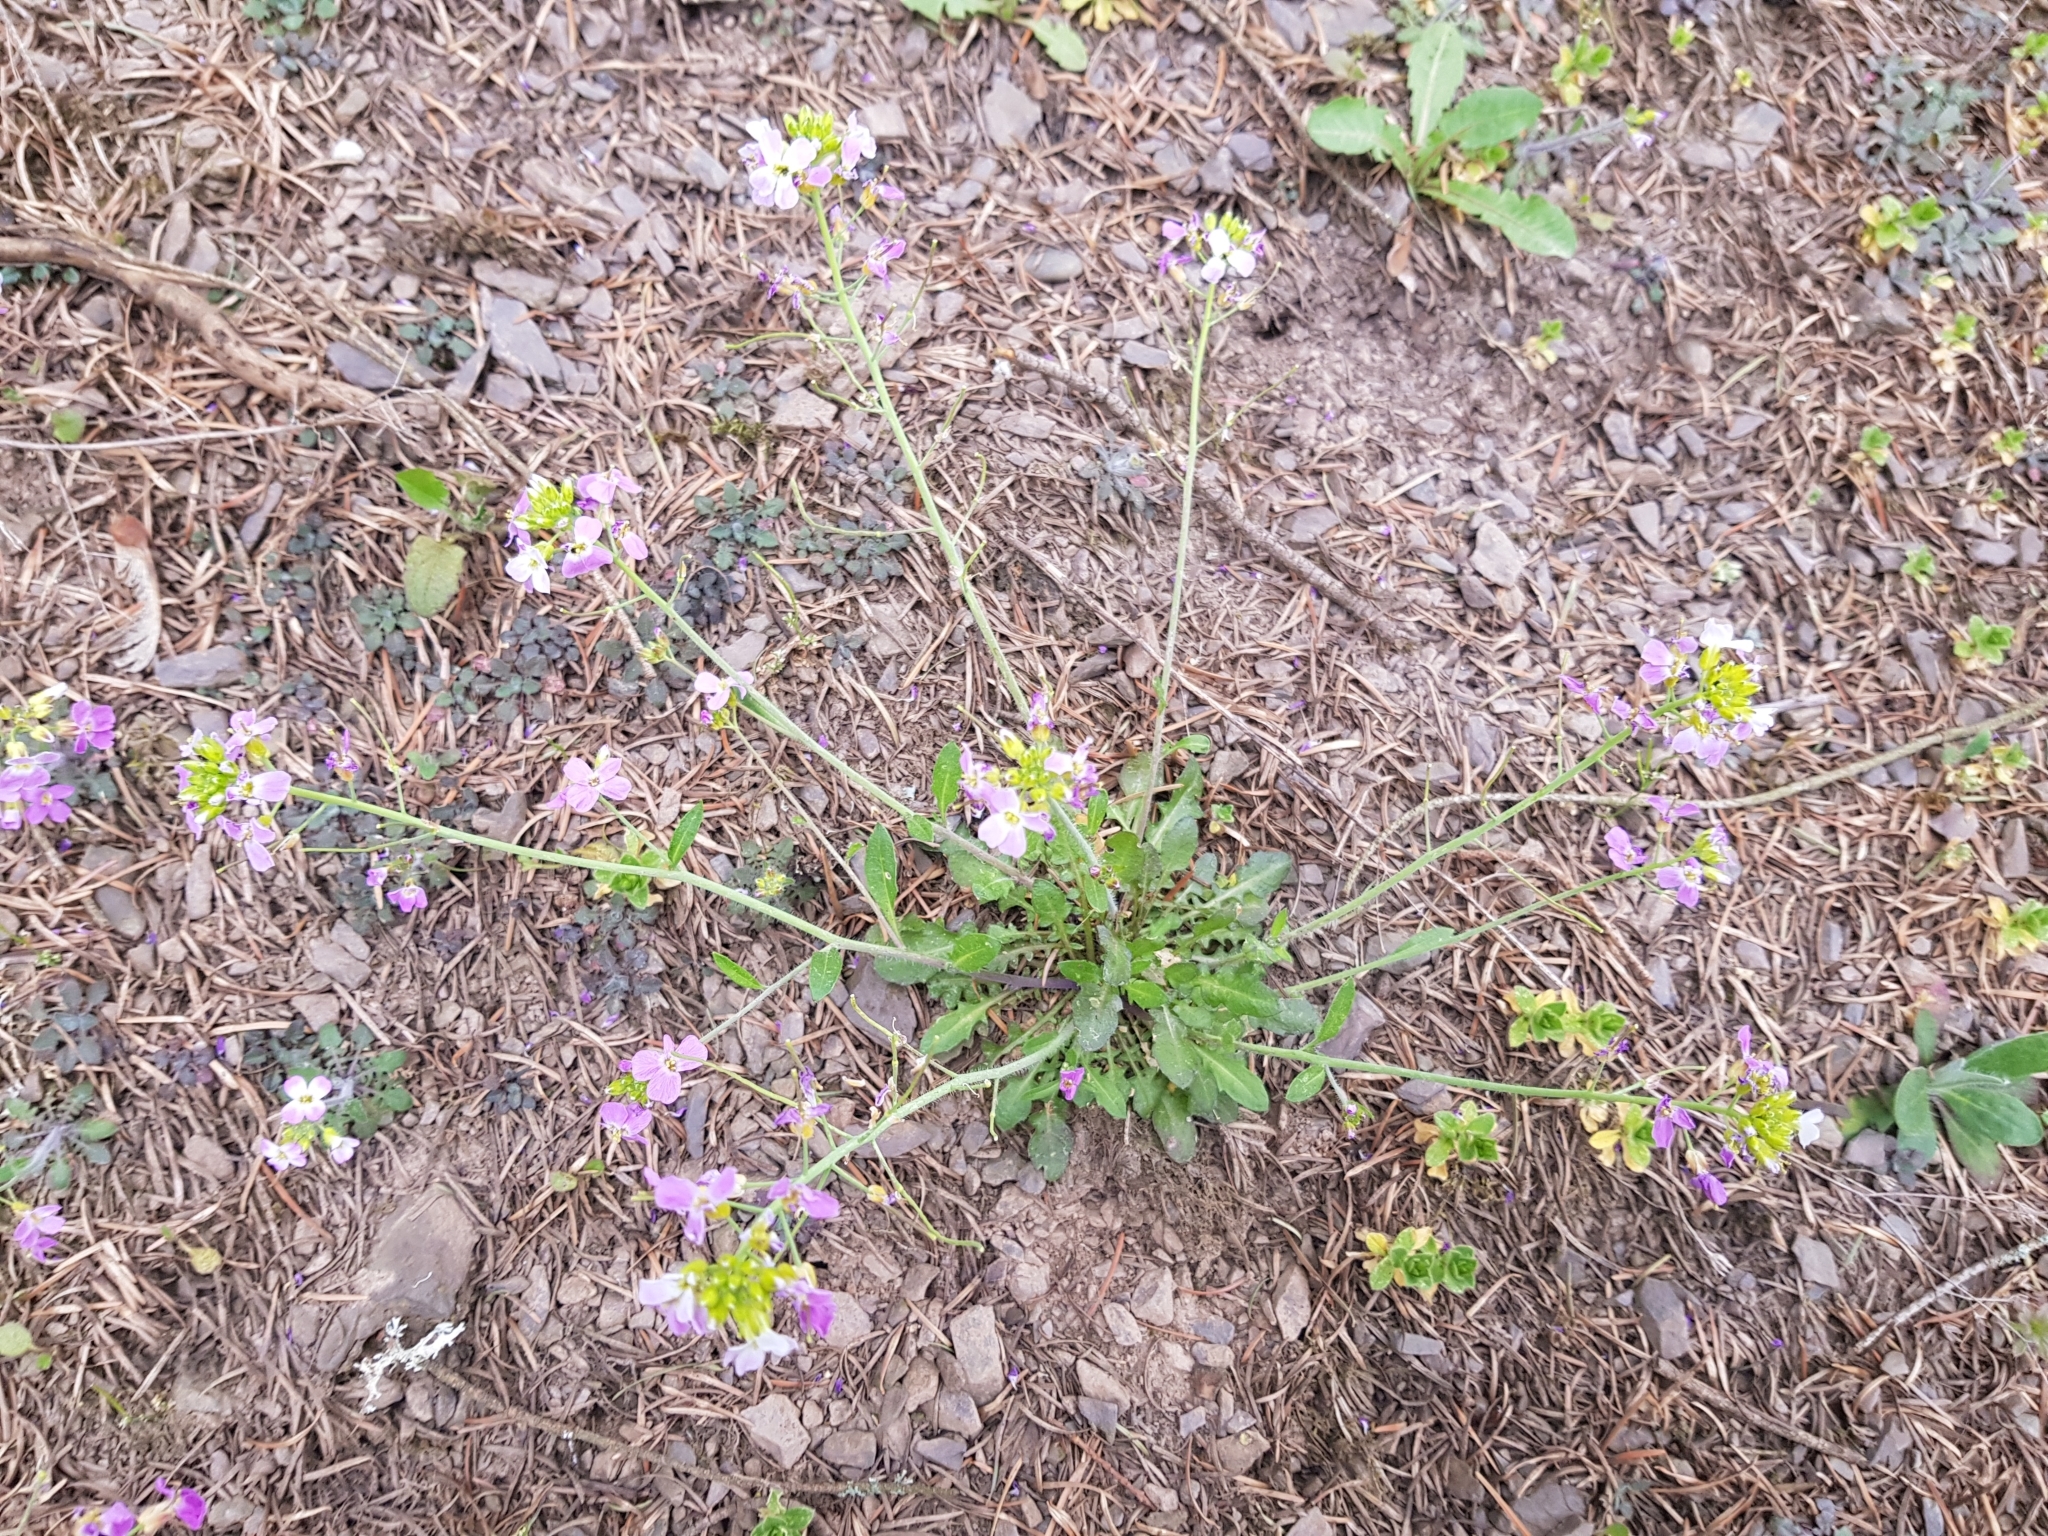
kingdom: Plantae
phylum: Tracheophyta
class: Magnoliopsida
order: Brassicales
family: Brassicaceae
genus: Arabidopsis
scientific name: Arabidopsis arenosa
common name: Sand rock-cress
